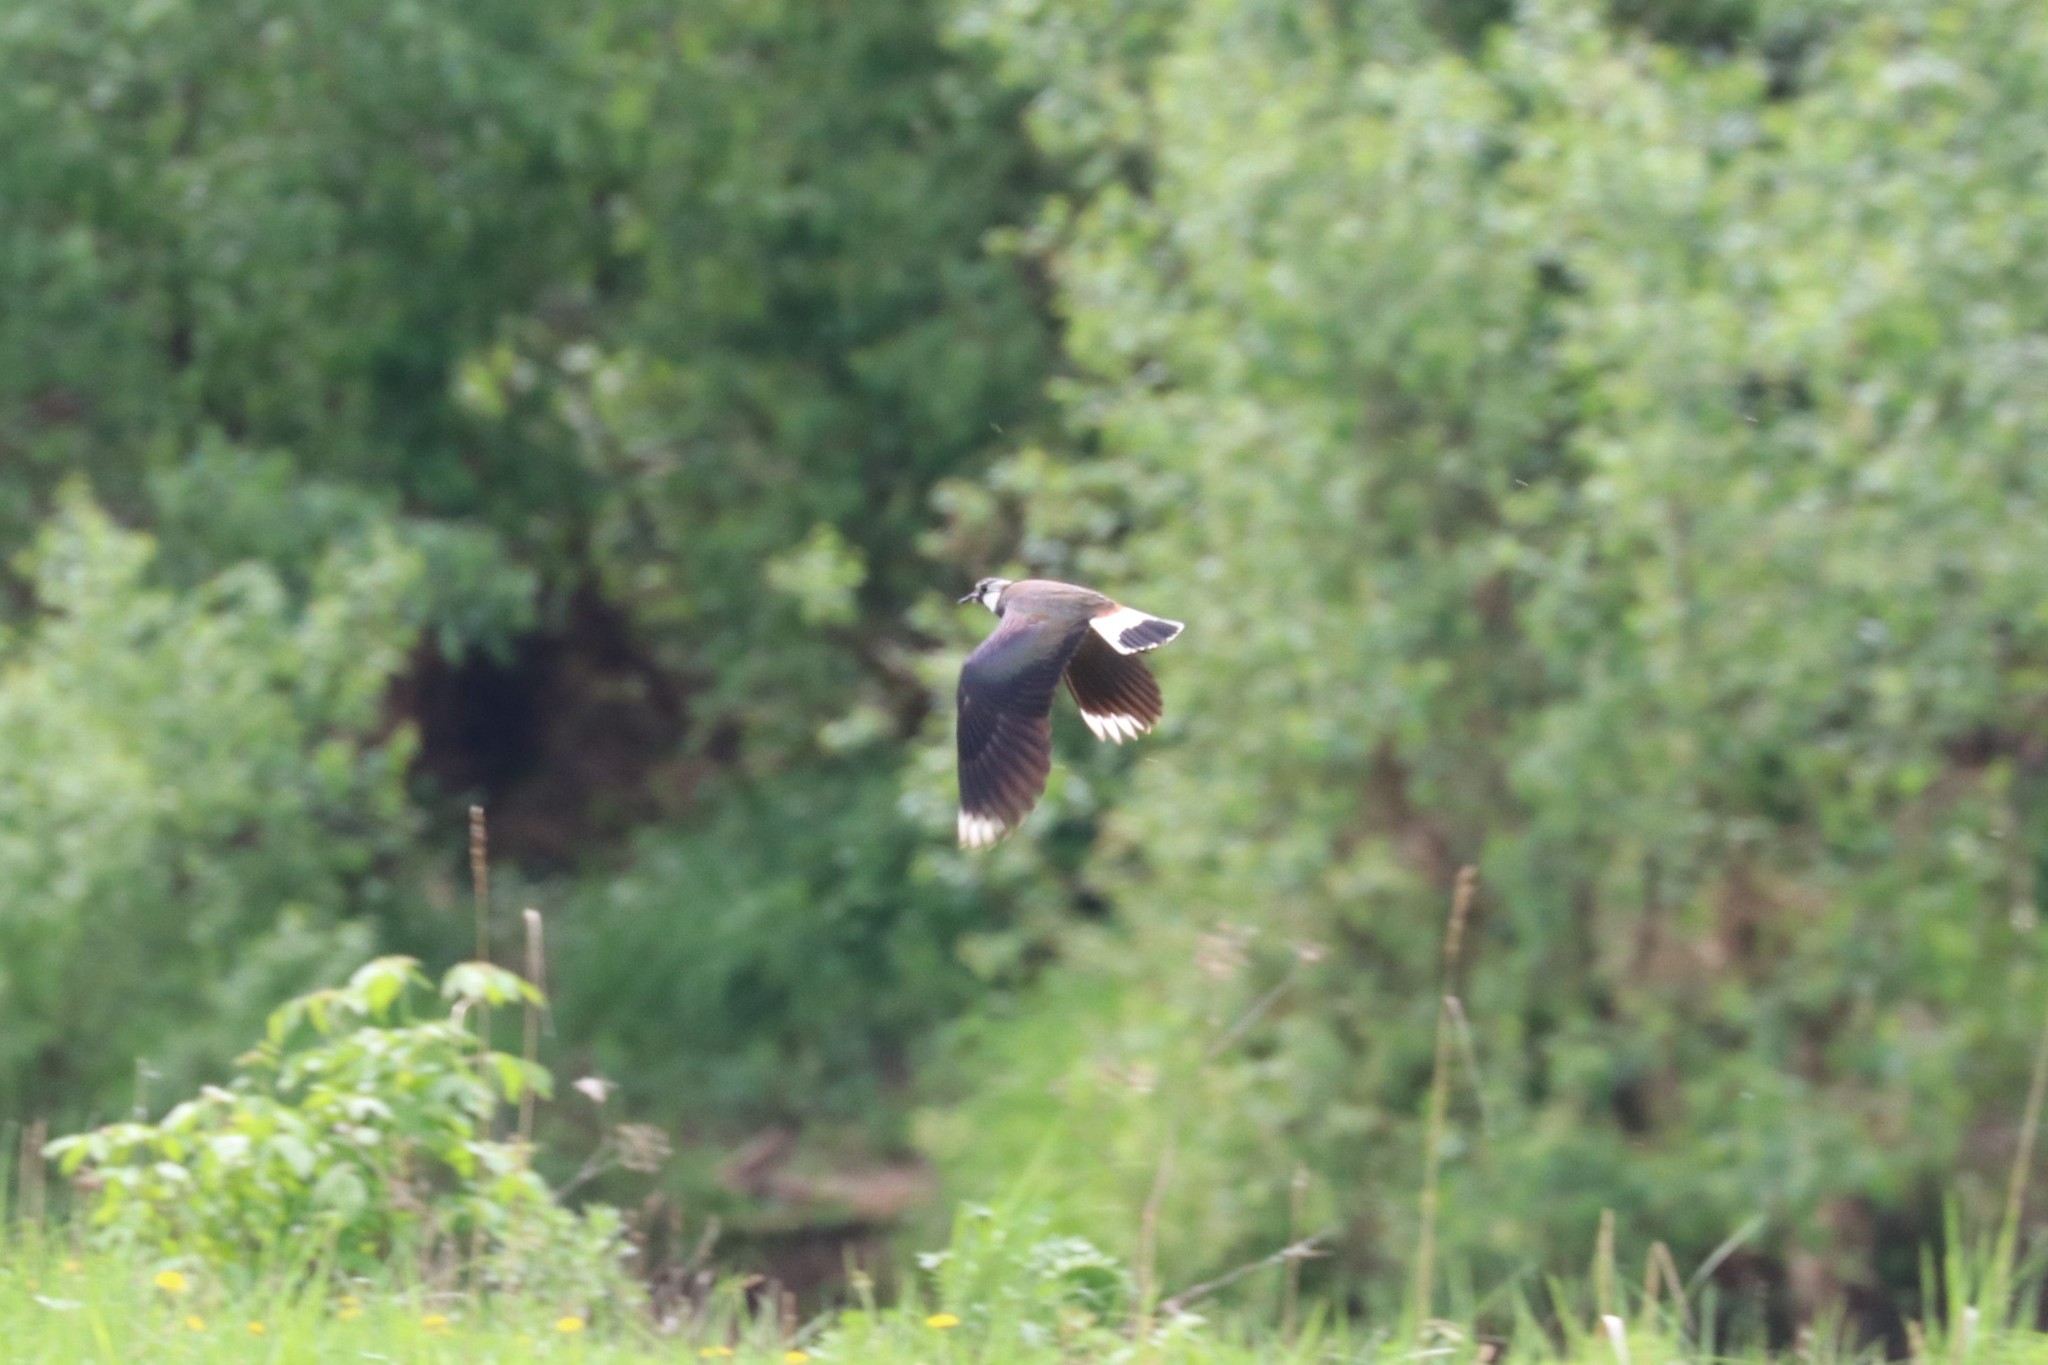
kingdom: Animalia
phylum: Chordata
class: Aves
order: Charadriiformes
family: Charadriidae
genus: Vanellus
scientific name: Vanellus vanellus
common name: Northern lapwing
